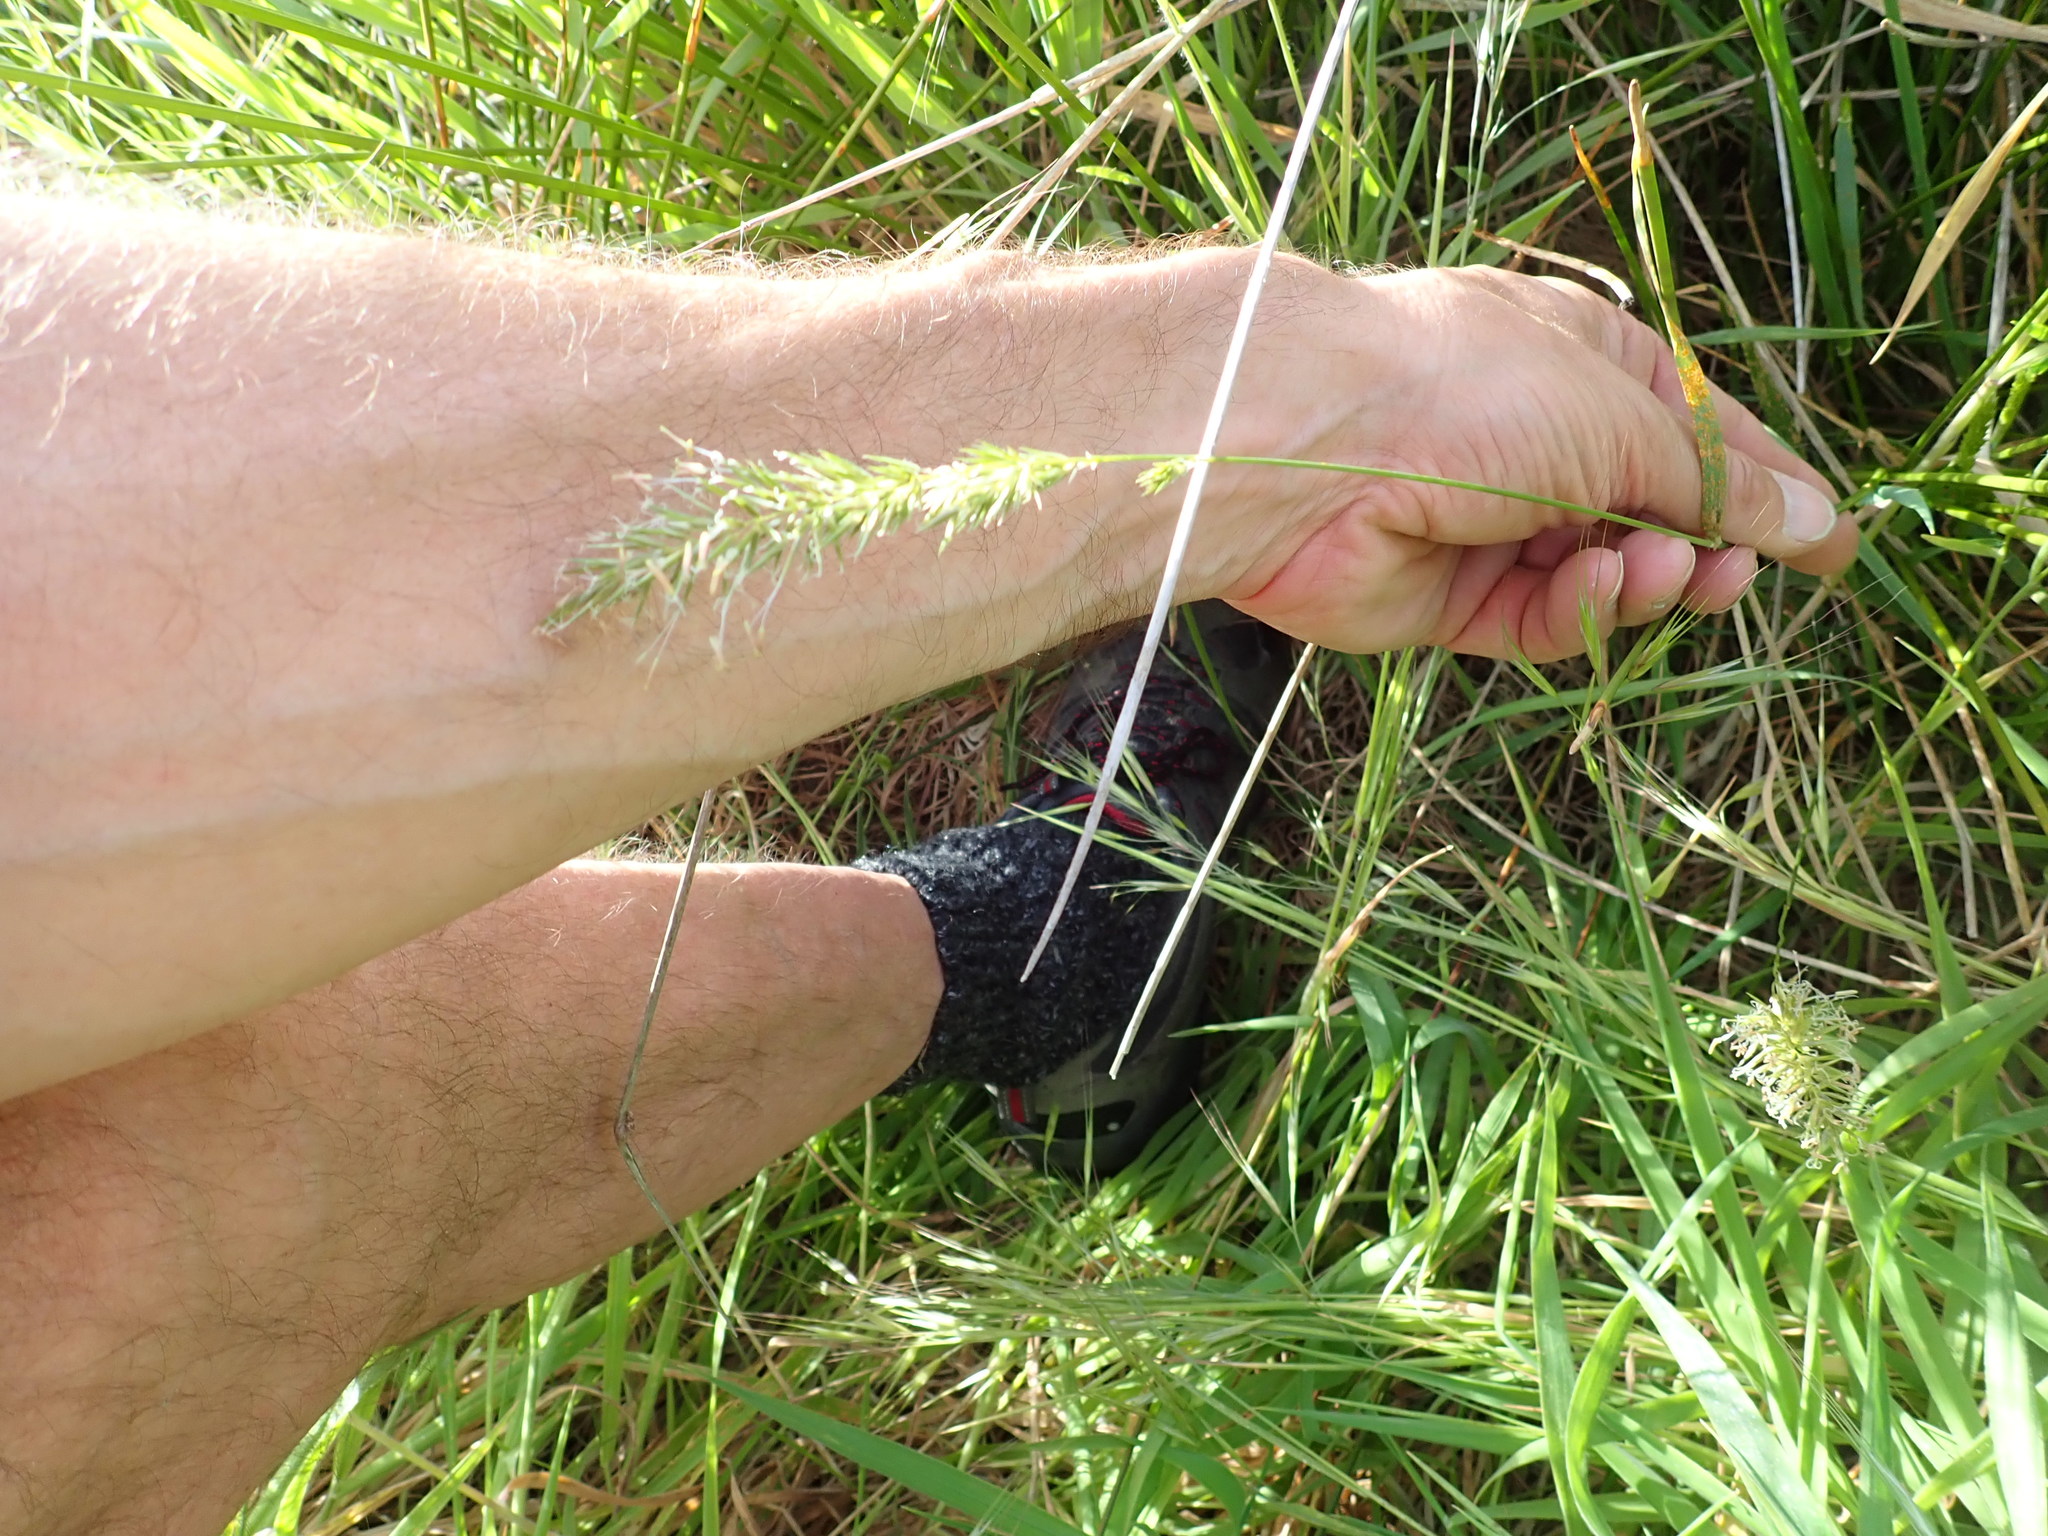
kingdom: Plantae
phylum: Tracheophyta
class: Liliopsida
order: Poales
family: Poaceae
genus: Anthoxanthum
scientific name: Anthoxanthum odoratum
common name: Sweet vernalgrass
